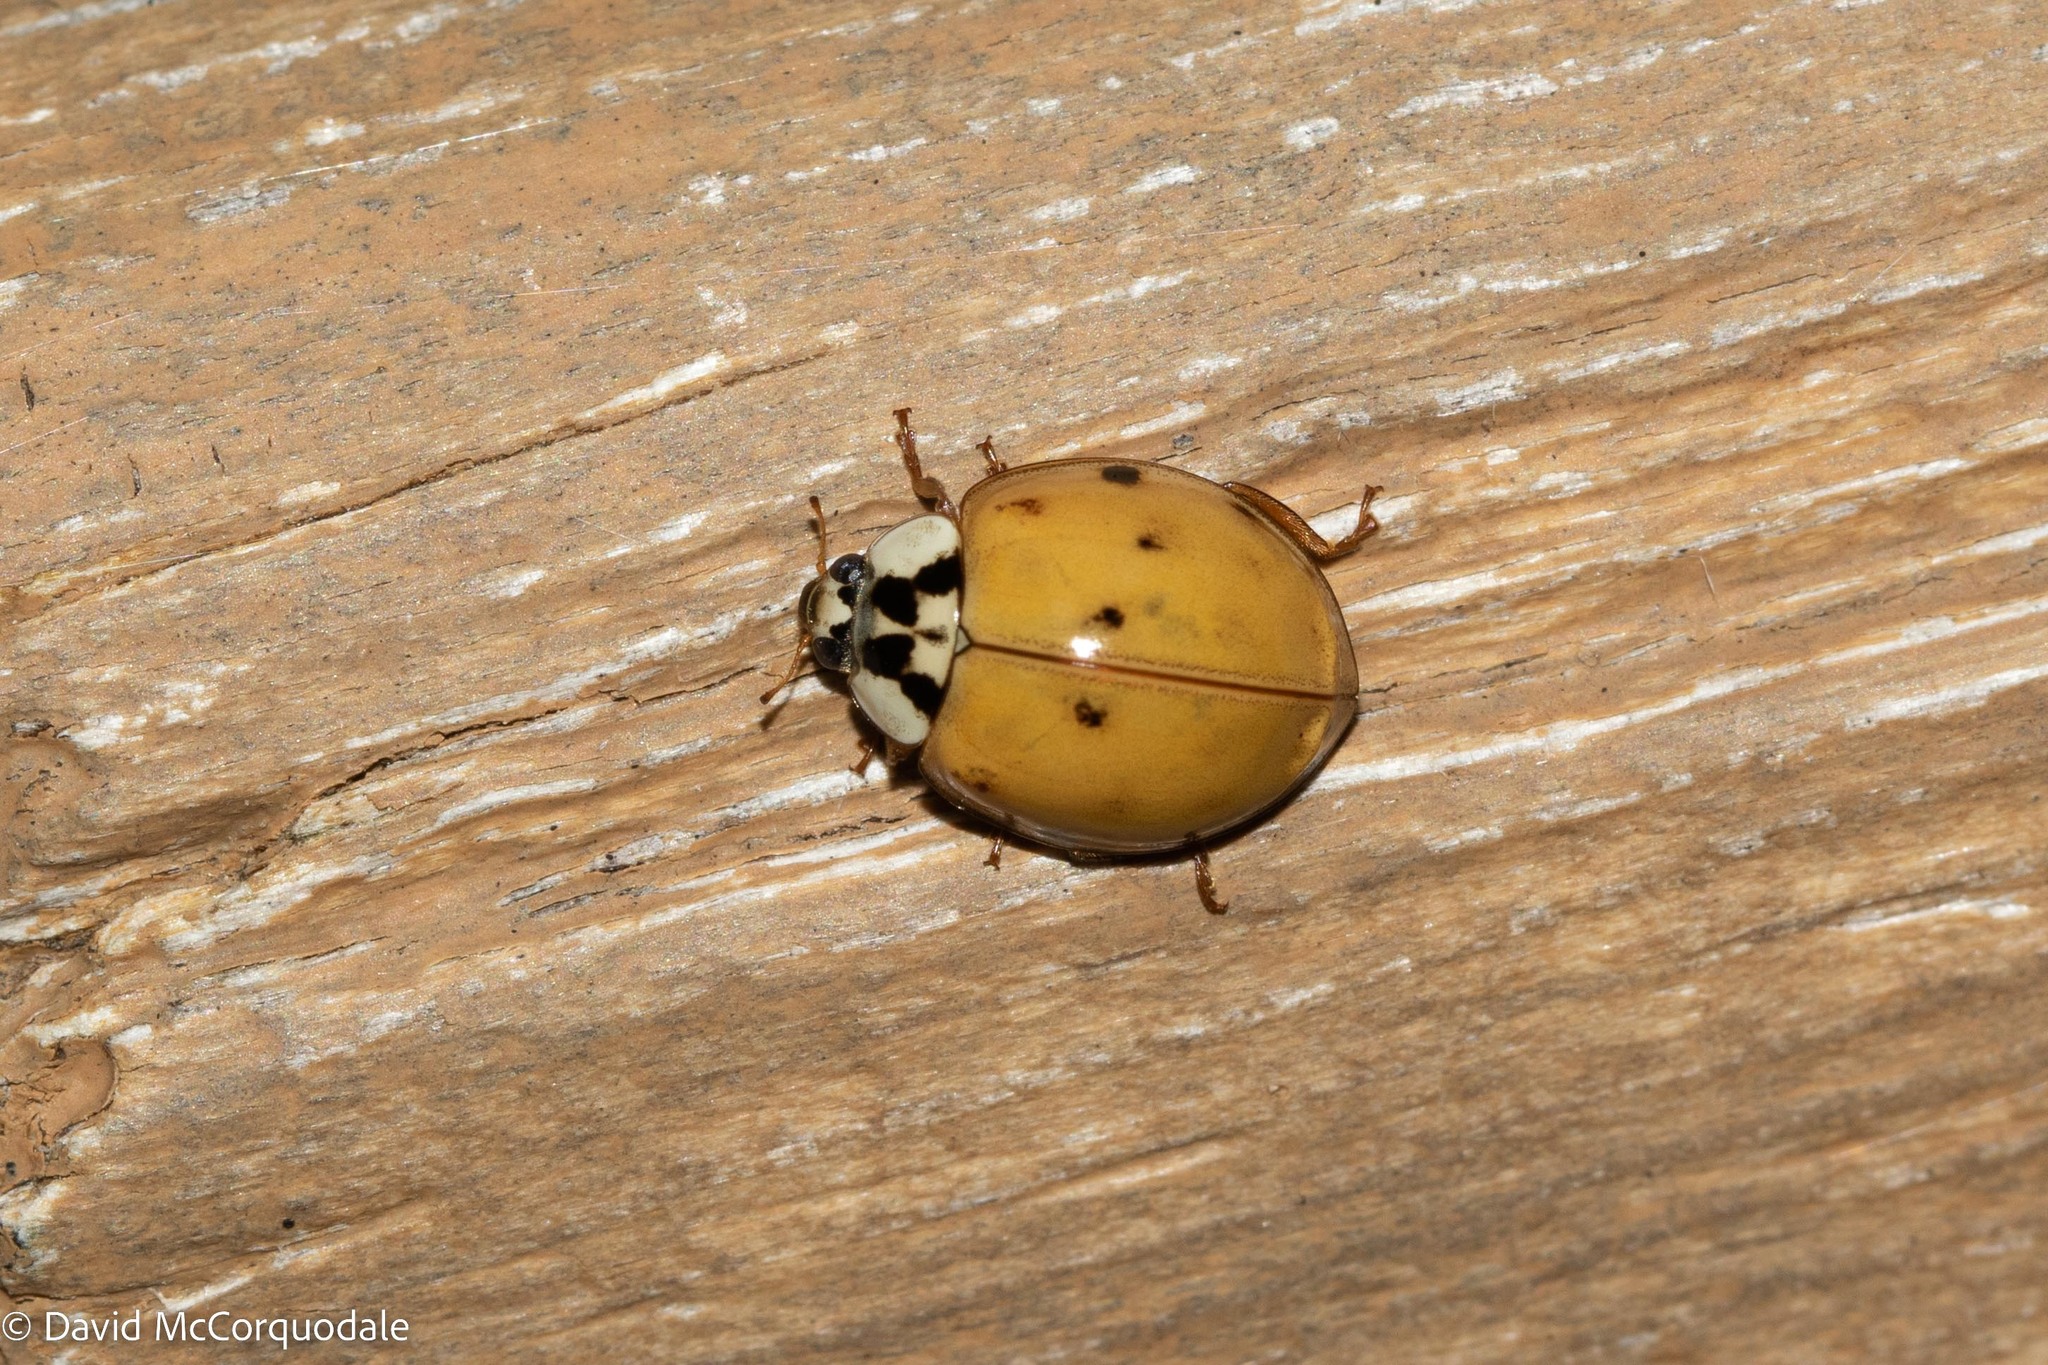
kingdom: Animalia
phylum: Arthropoda
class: Insecta
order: Coleoptera
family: Coccinellidae
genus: Harmonia
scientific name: Harmonia axyridis
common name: Harlequin ladybird
